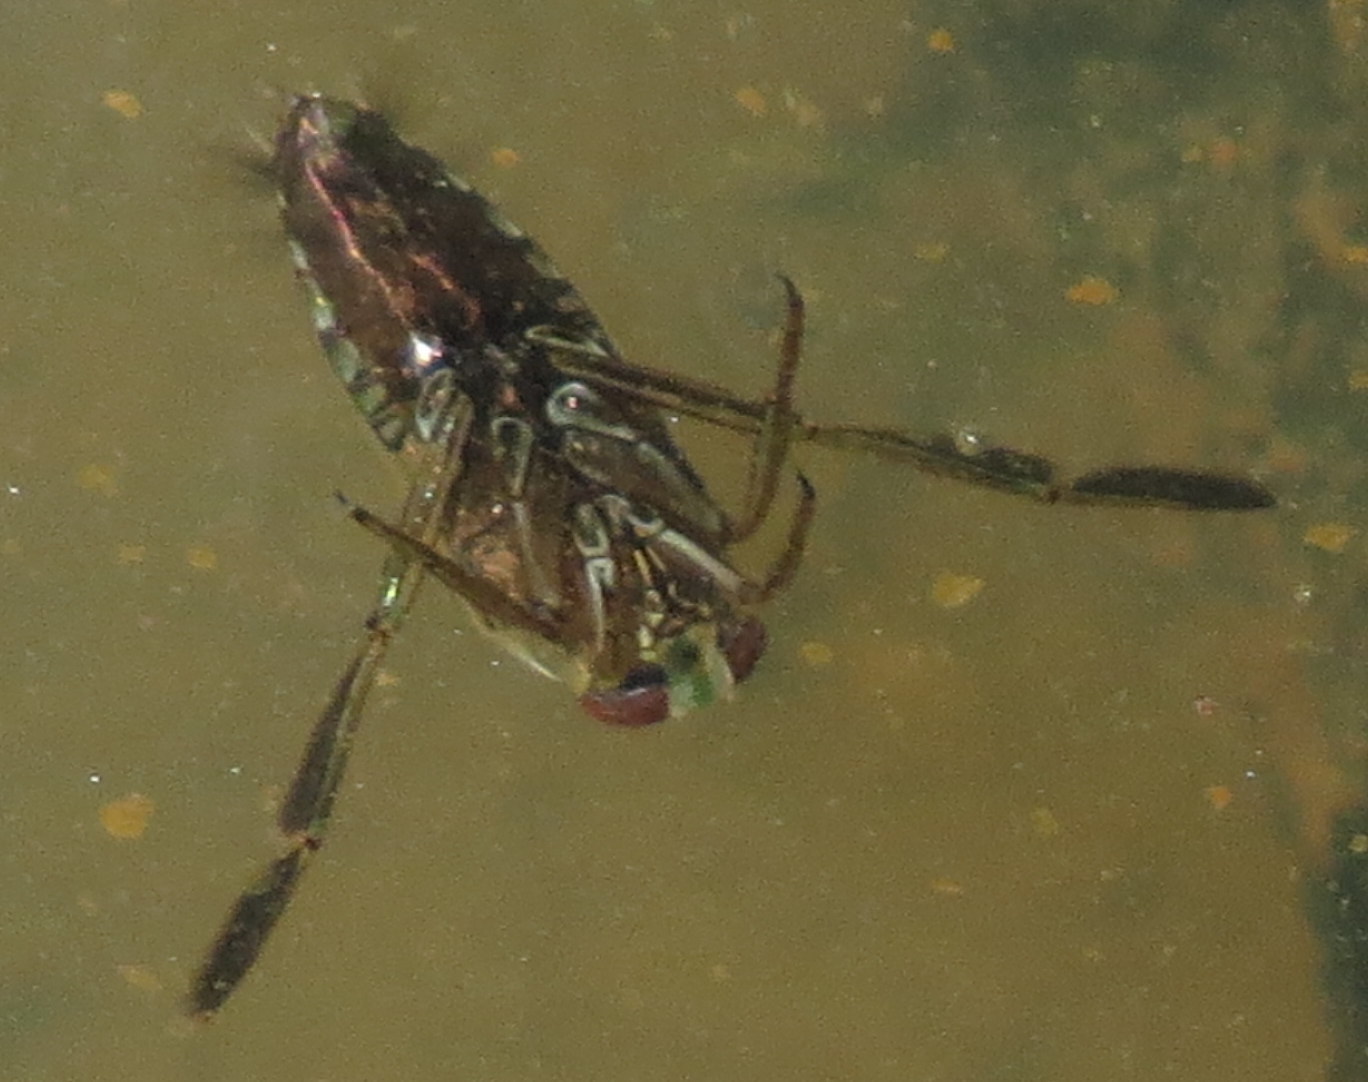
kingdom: Animalia
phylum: Arthropoda
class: Insecta
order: Hemiptera
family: Notonectidae
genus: Notonecta
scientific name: Notonecta
